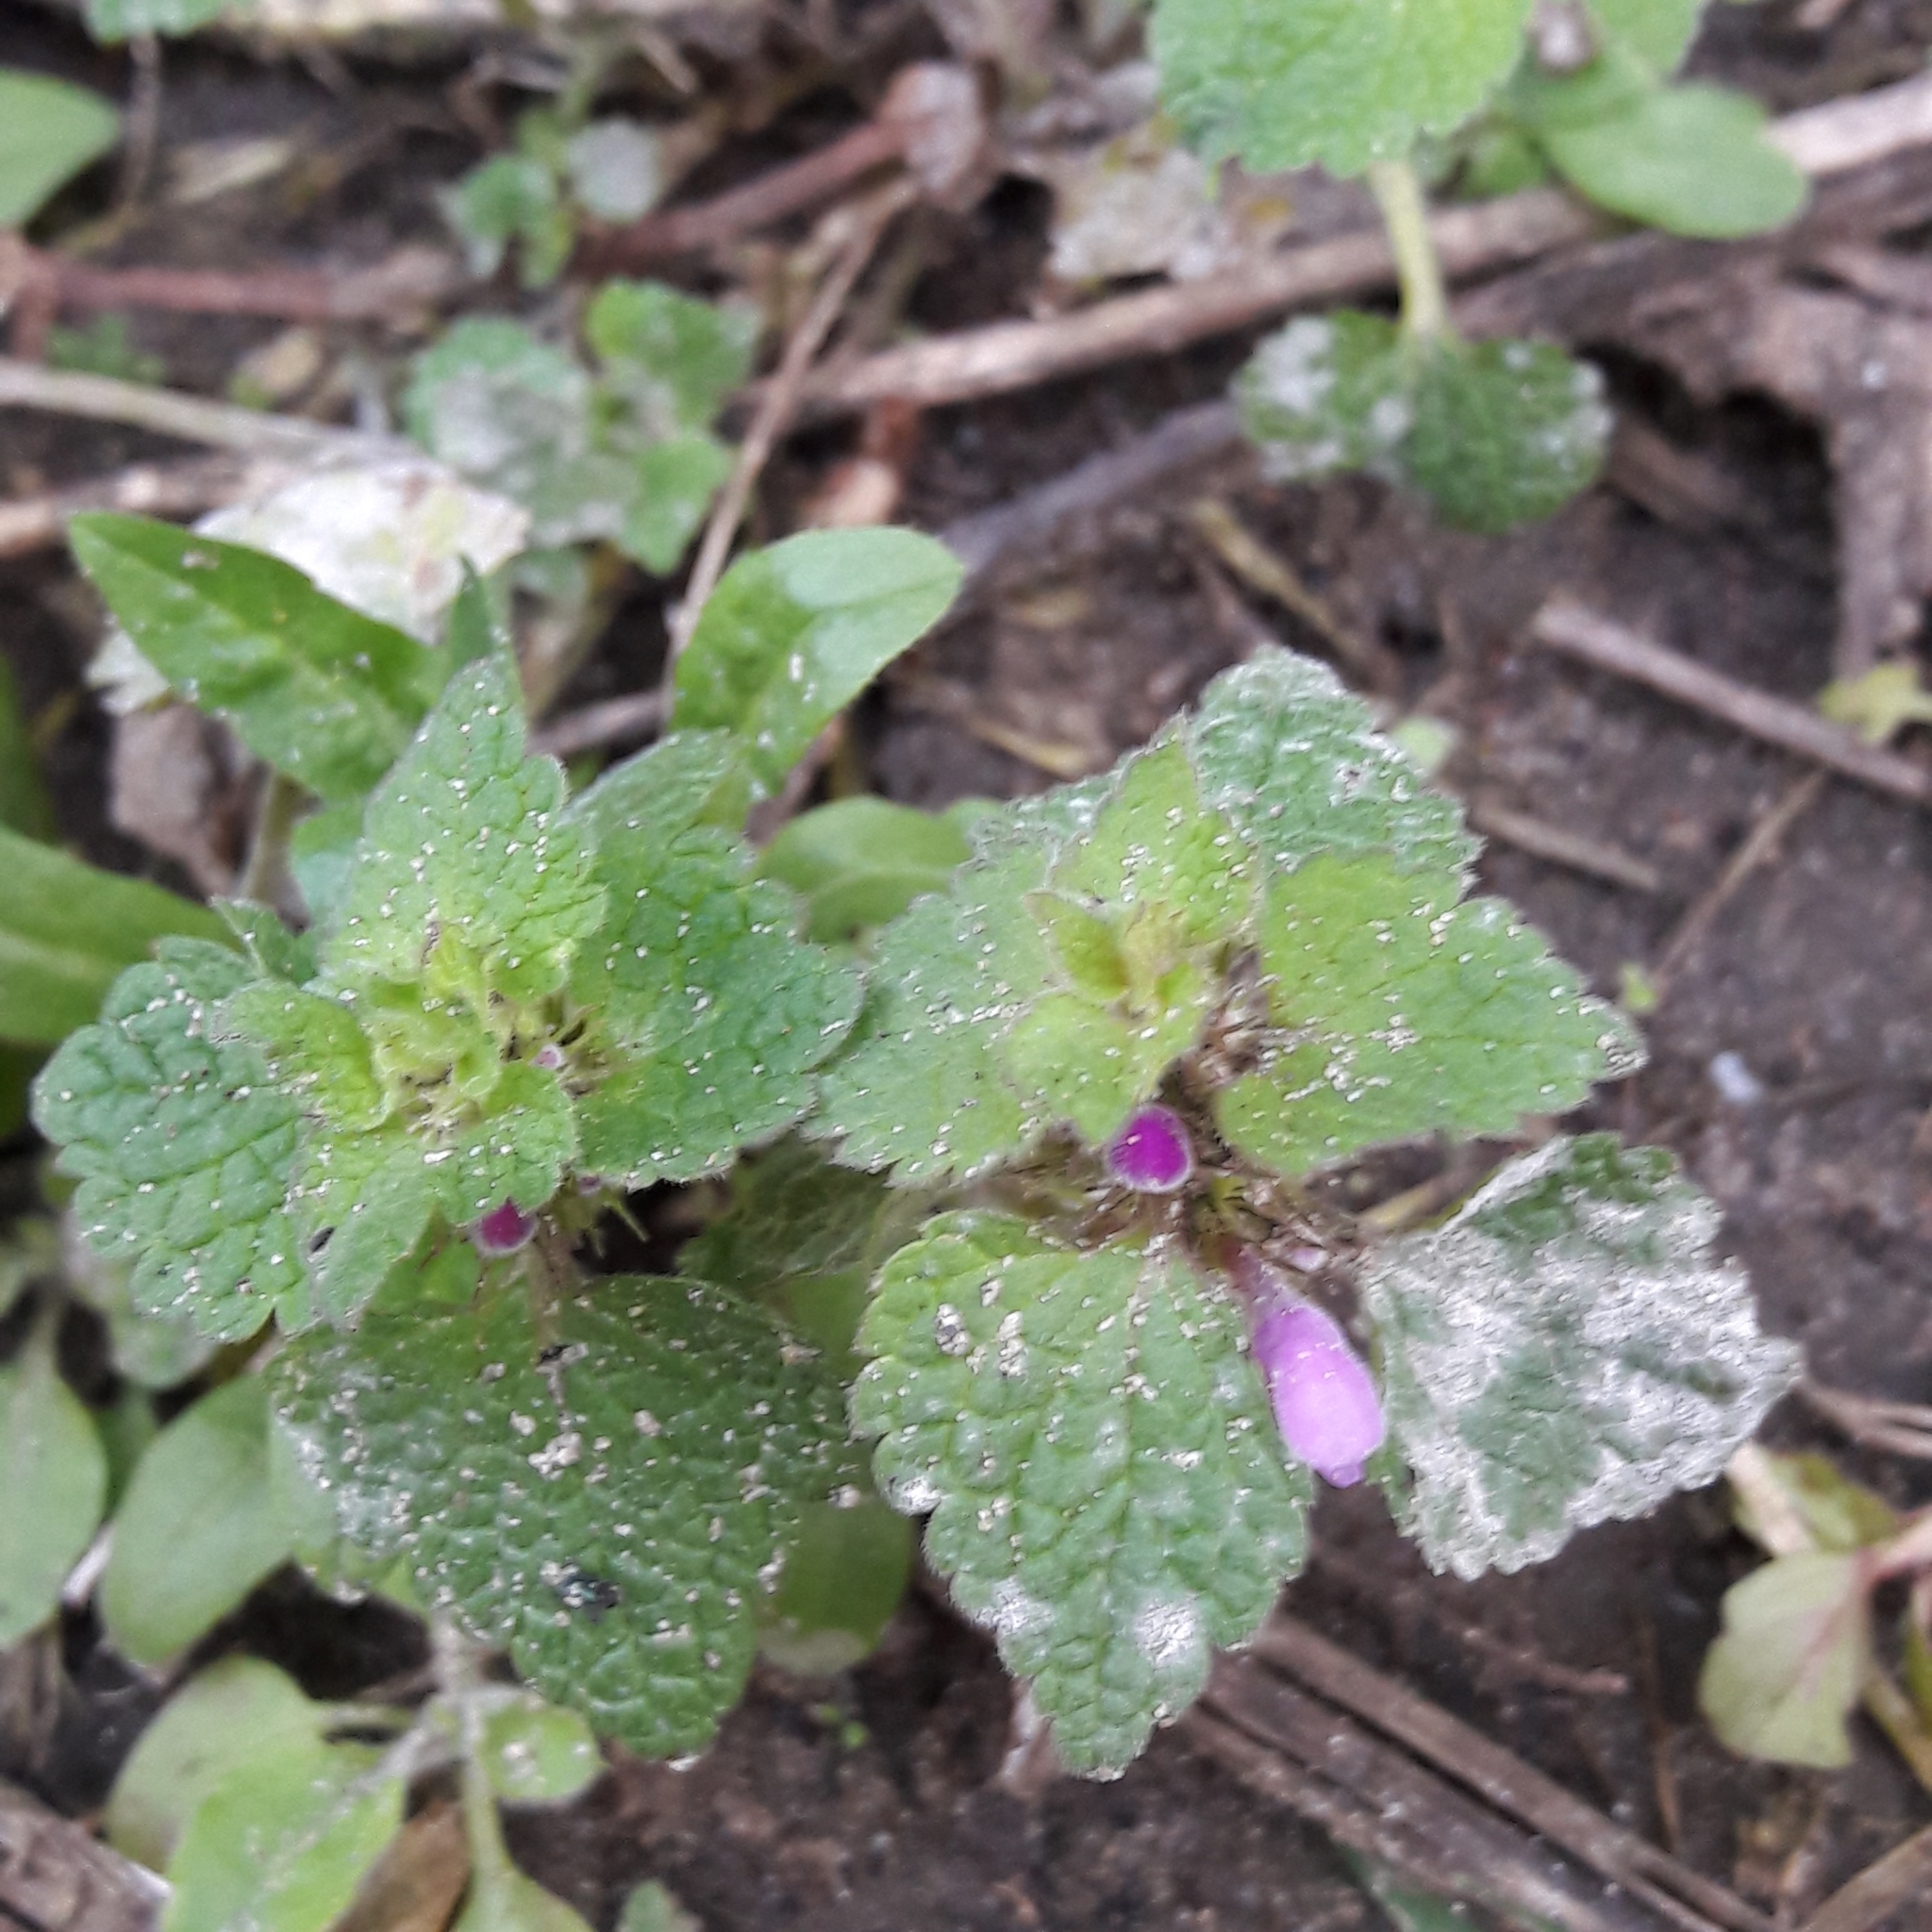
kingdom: Plantae
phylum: Tracheophyta
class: Magnoliopsida
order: Lamiales
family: Lamiaceae
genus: Lamium
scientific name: Lamium purpureum
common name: Red dead-nettle
